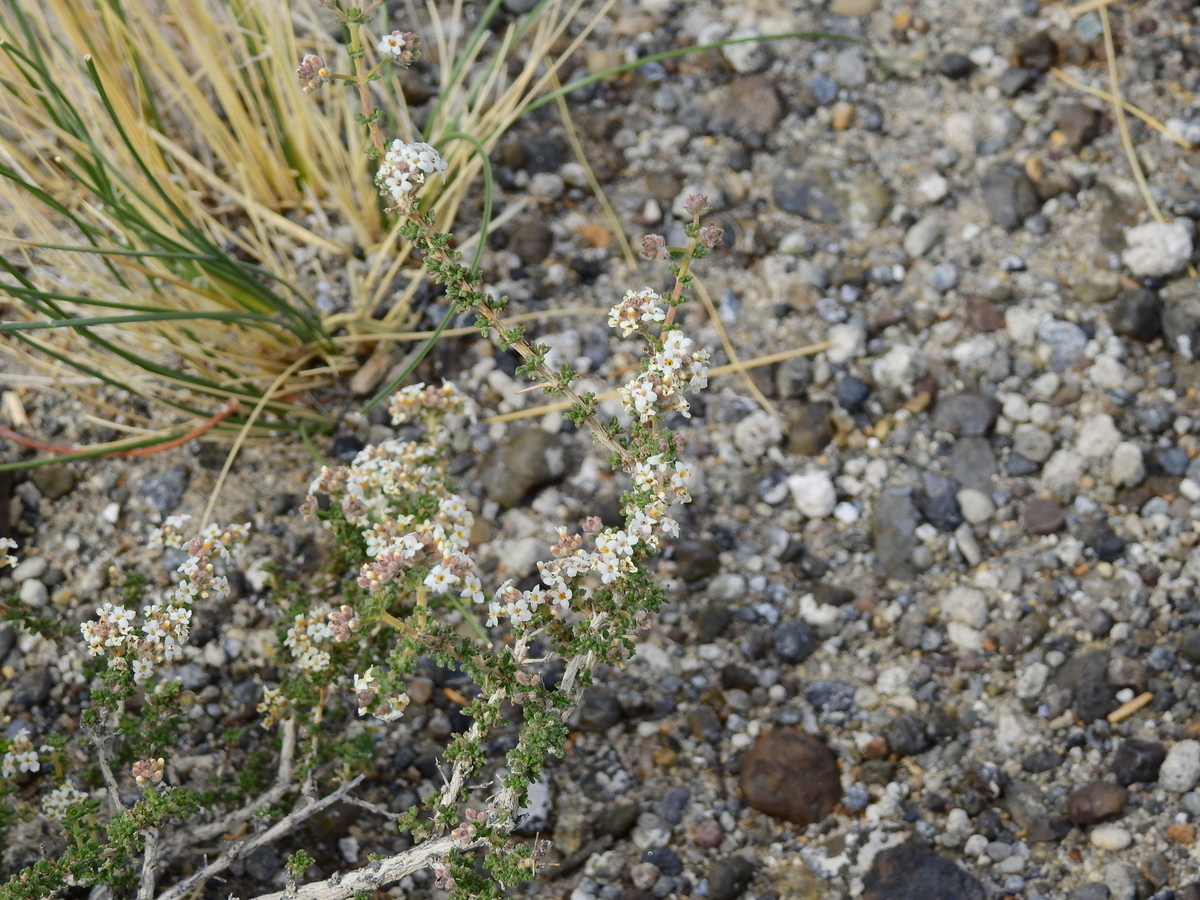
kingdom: Plantae
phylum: Tracheophyta
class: Magnoliopsida
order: Lamiales
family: Verbenaceae
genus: Acantholippia
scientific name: Acantholippia seriphioides
